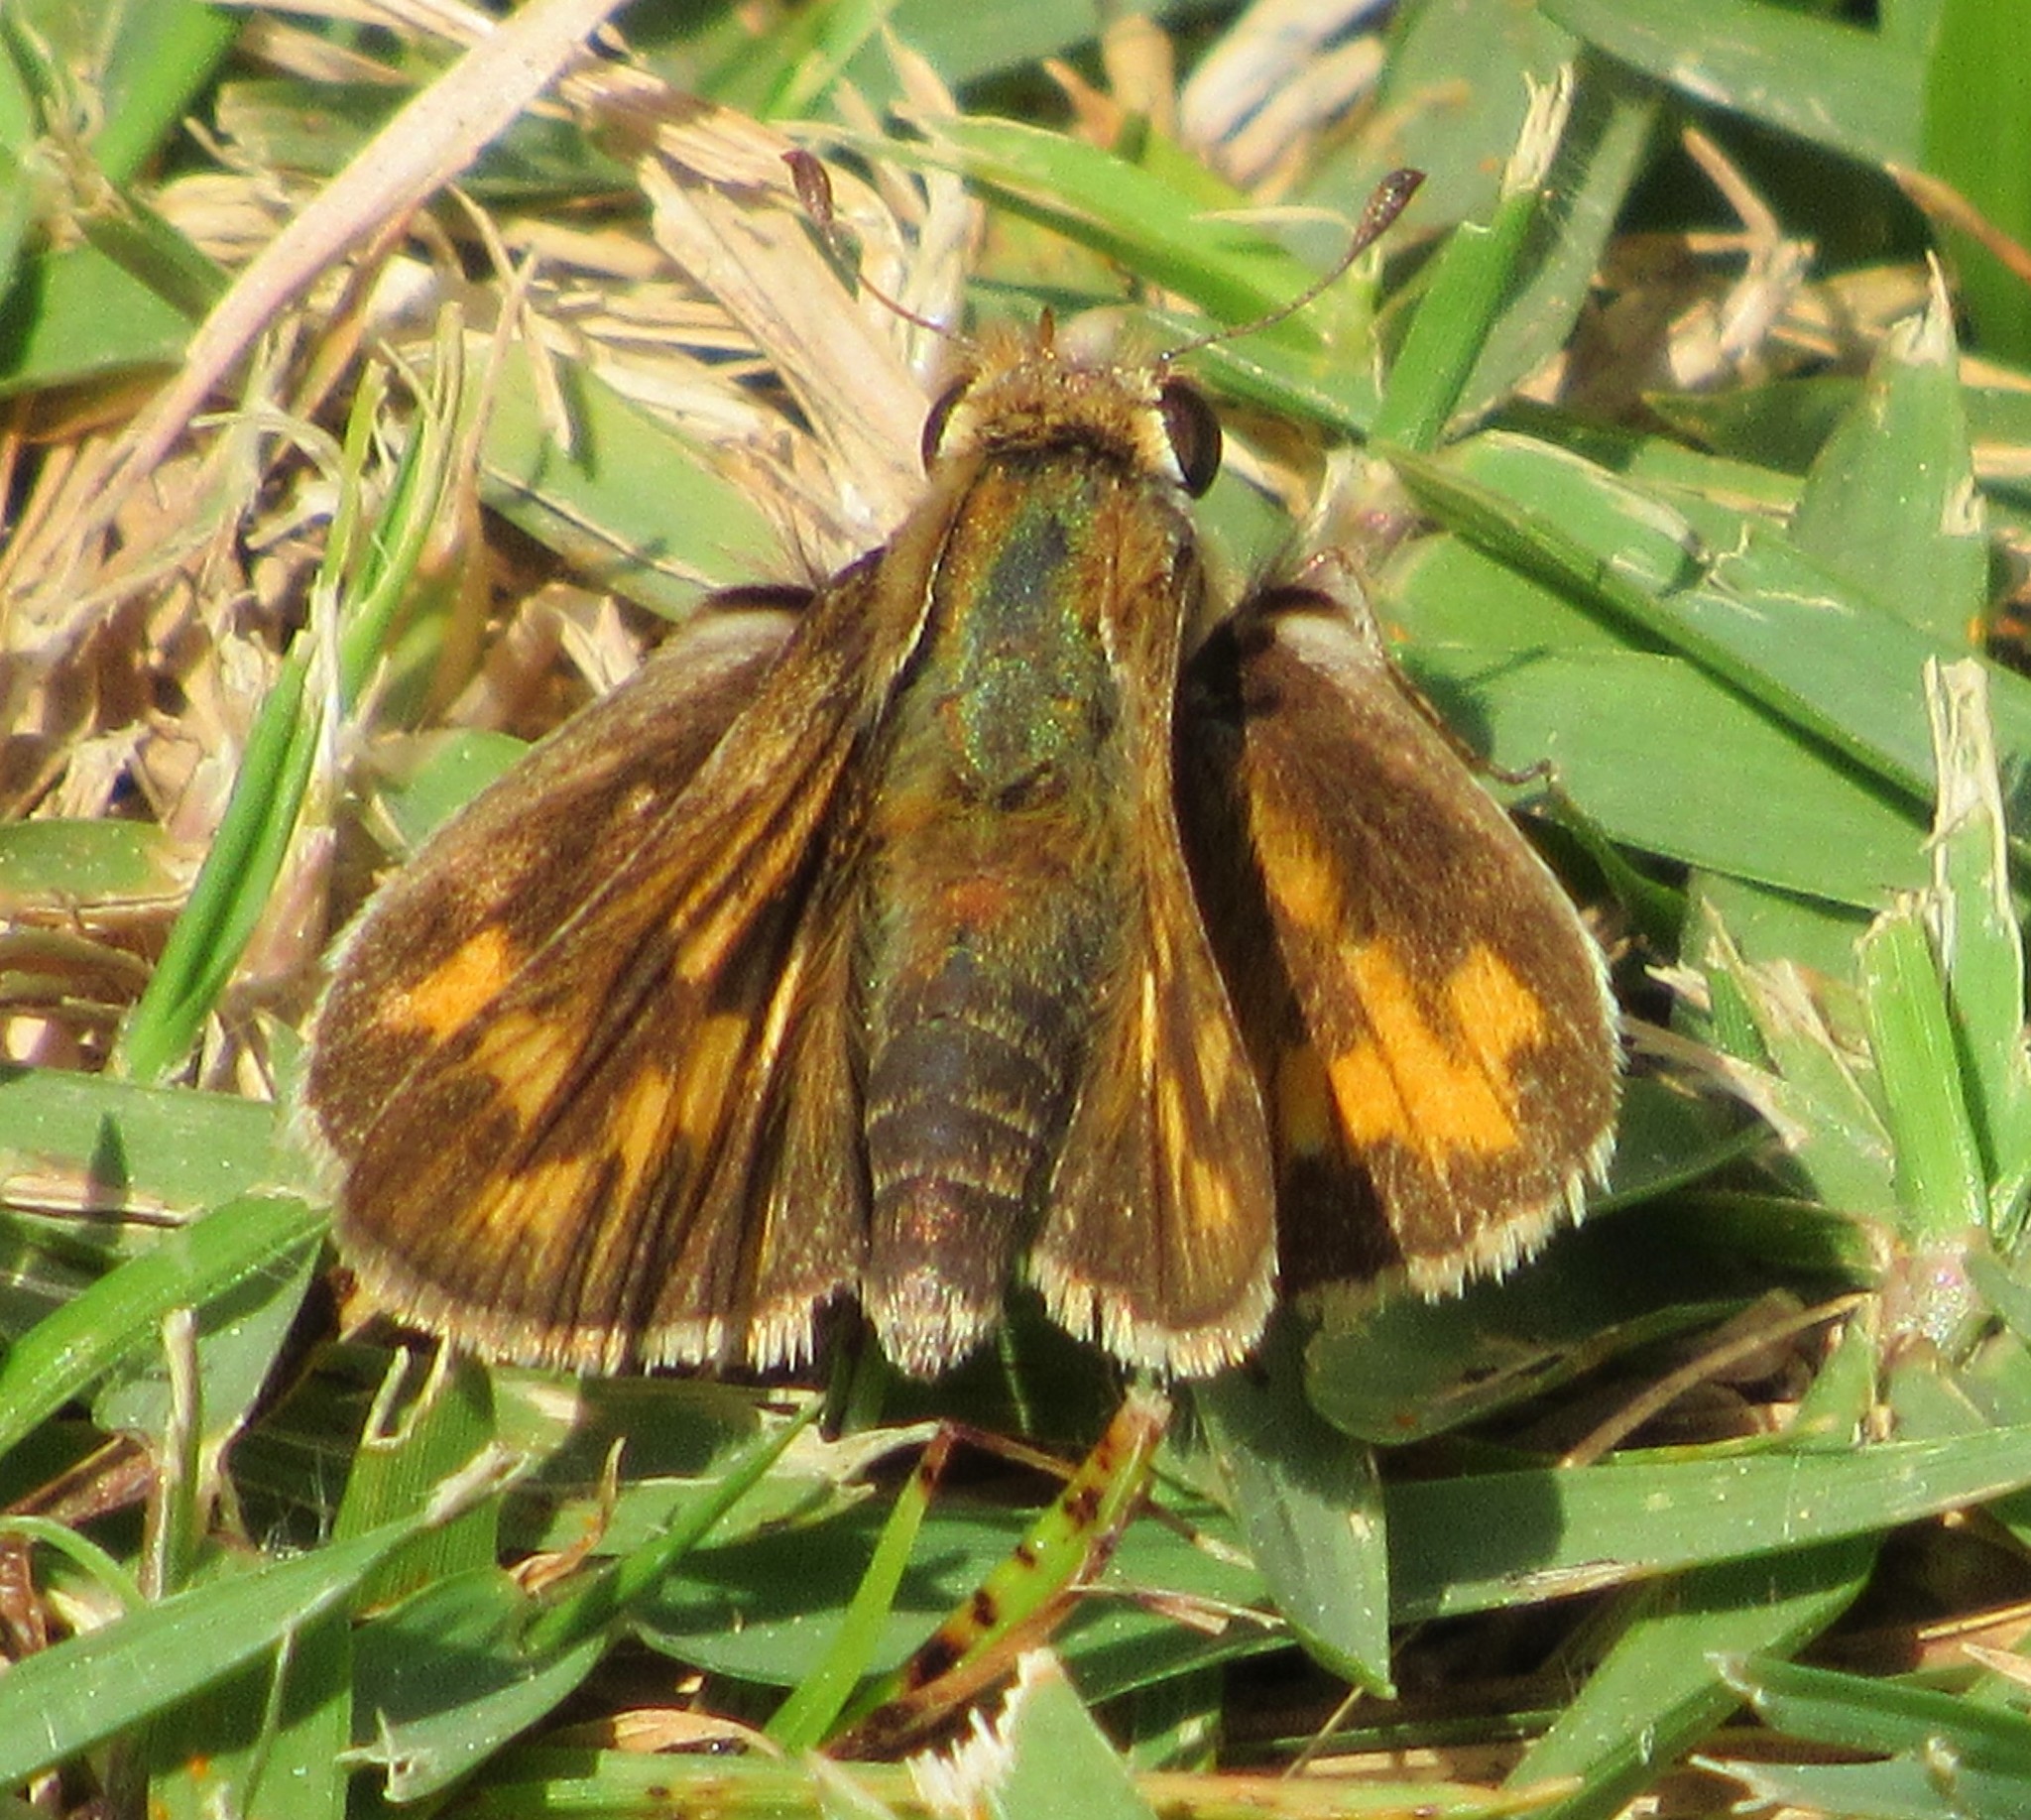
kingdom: Animalia
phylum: Arthropoda
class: Insecta
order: Lepidoptera
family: Hesperiidae
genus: Hylephila
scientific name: Hylephila phyleus
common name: Fiery skipper
